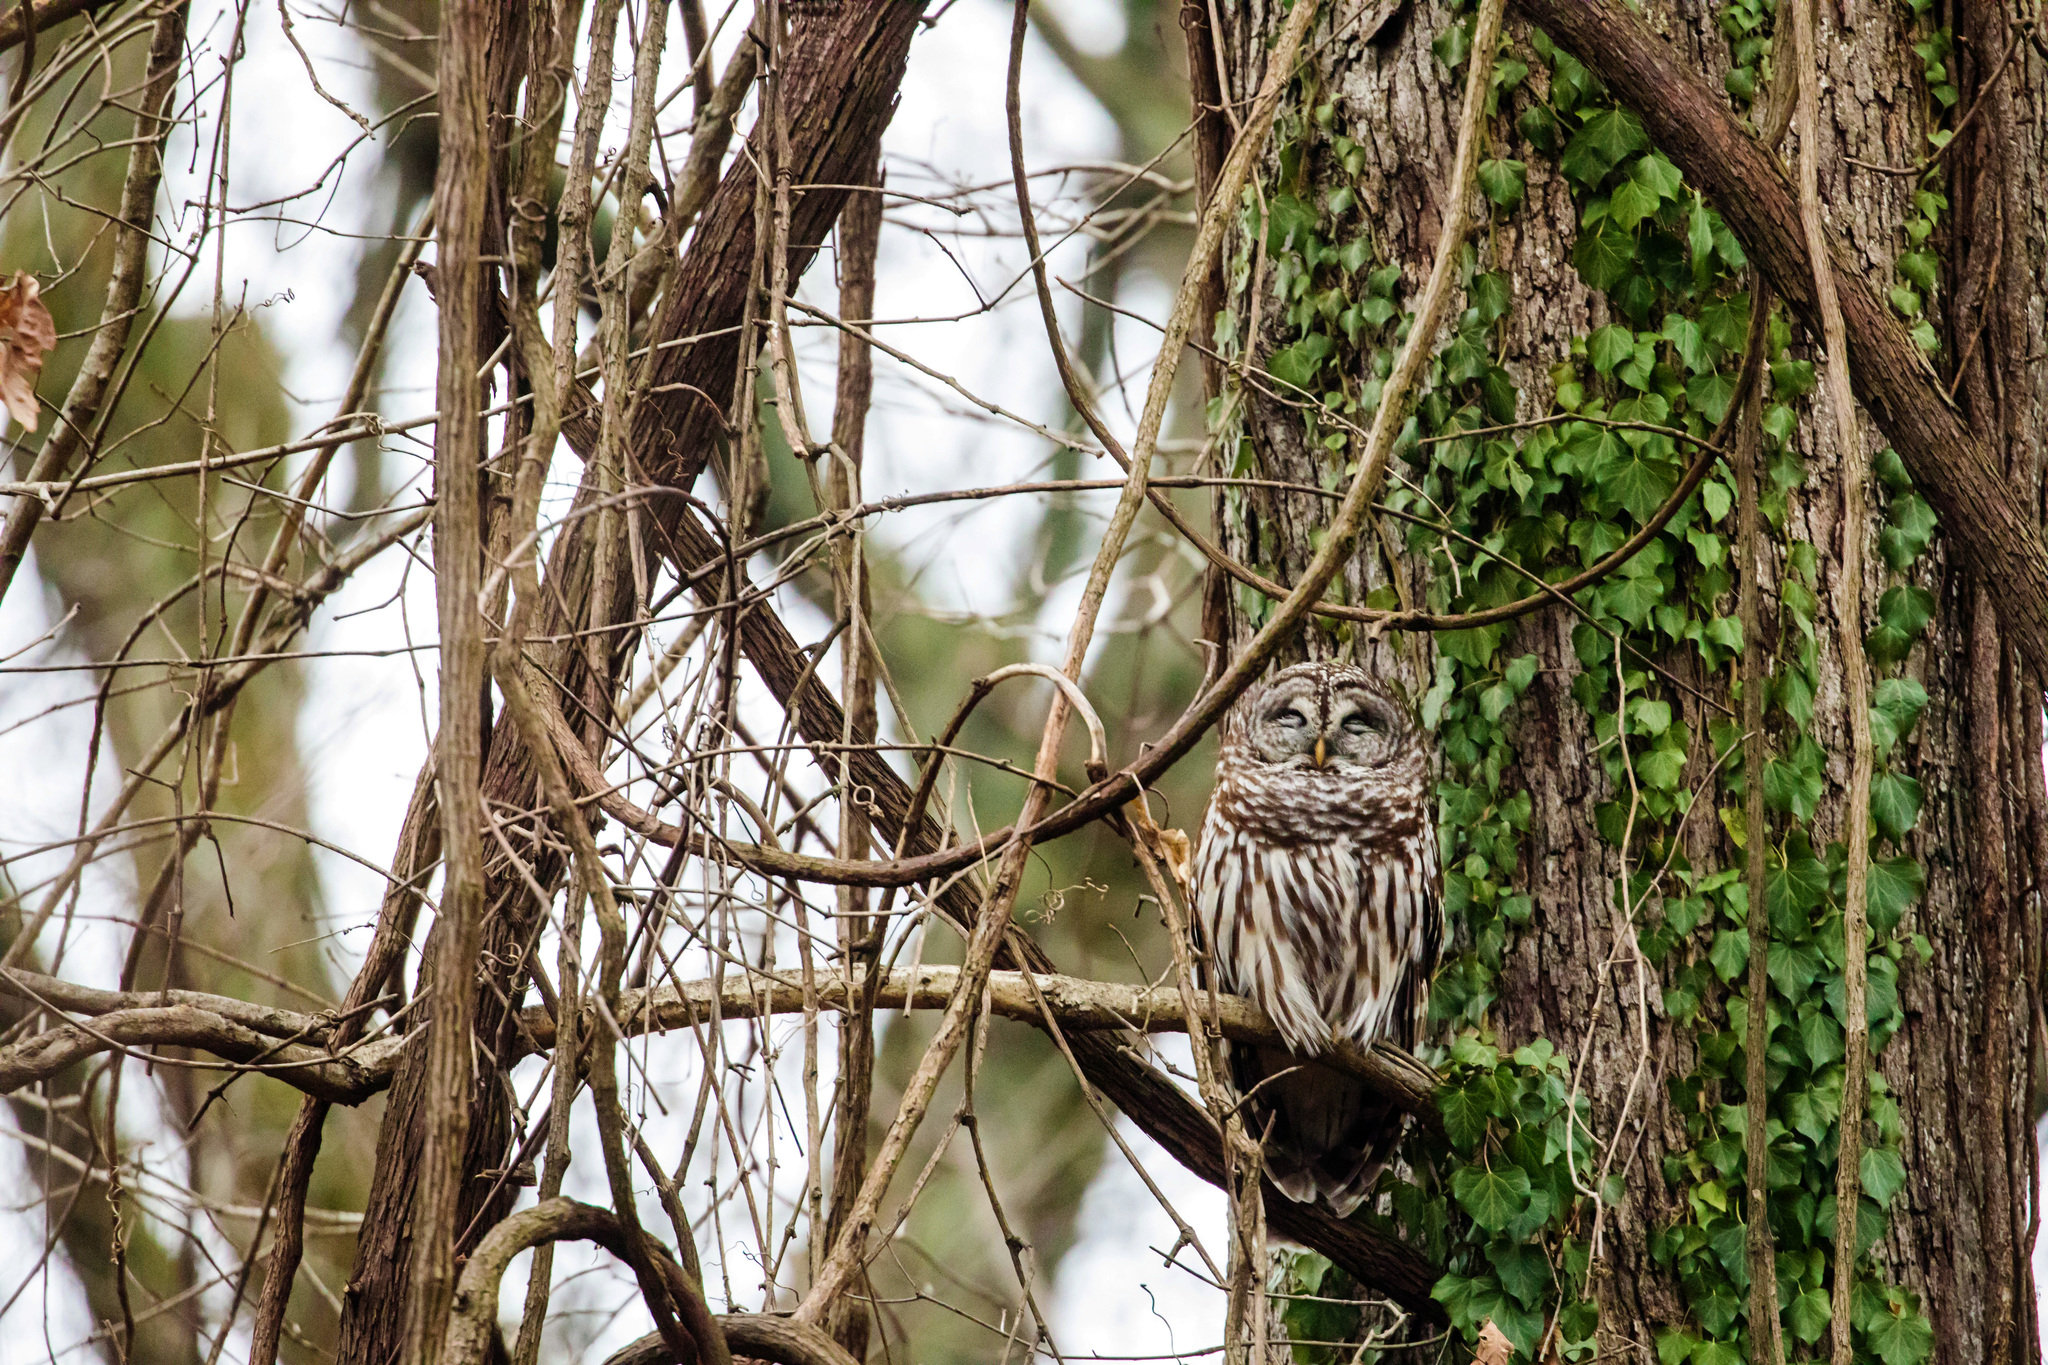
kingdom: Animalia
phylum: Chordata
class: Aves
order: Strigiformes
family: Strigidae
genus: Strix
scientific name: Strix varia
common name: Barred owl
